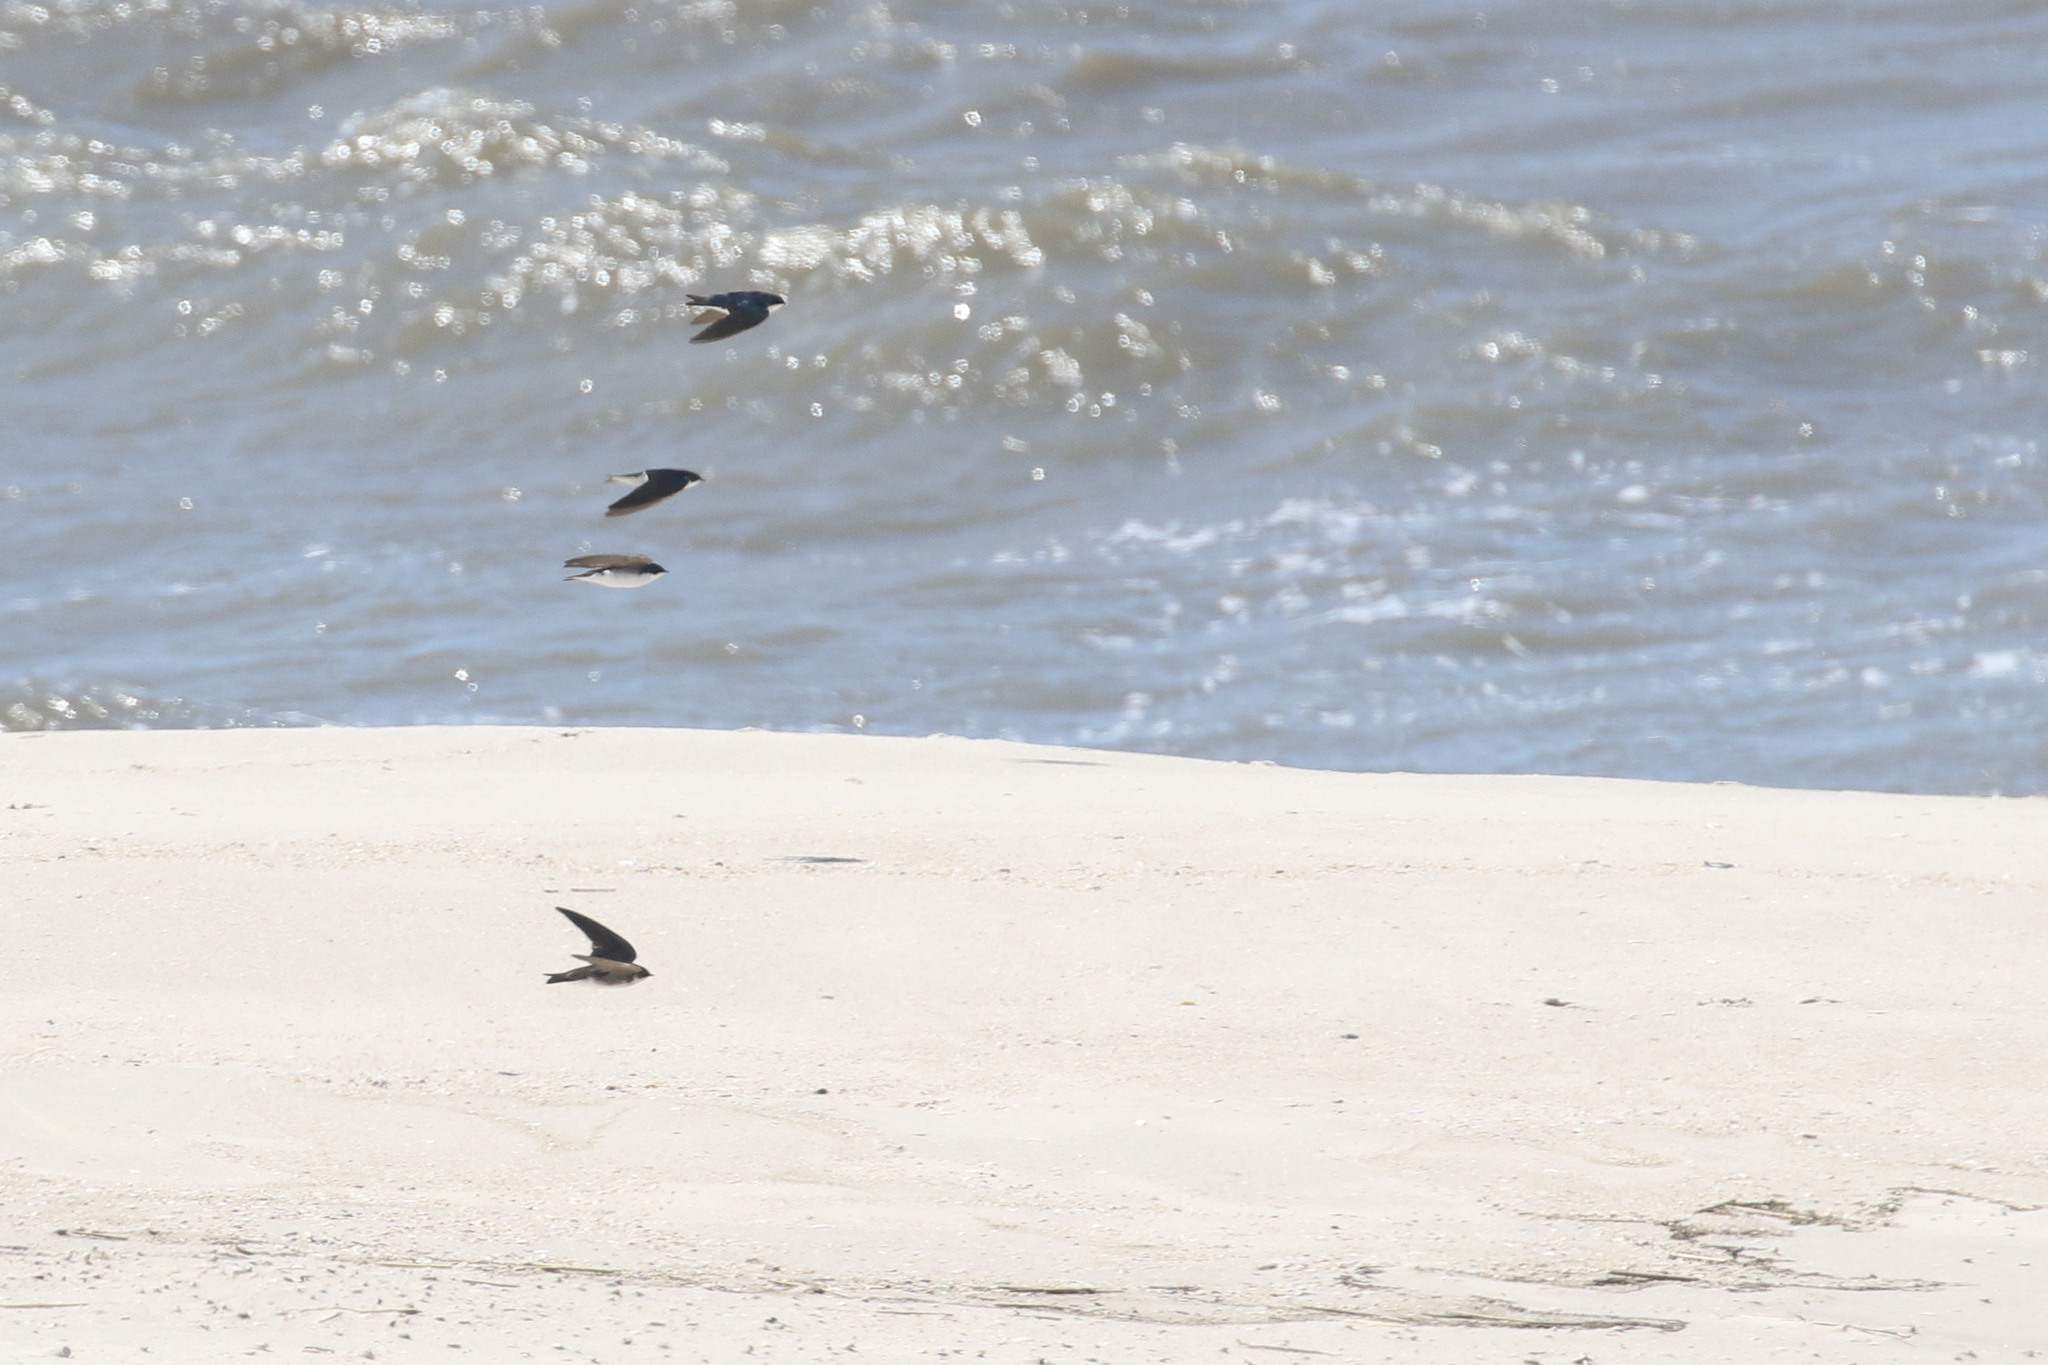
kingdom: Animalia
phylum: Chordata
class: Aves
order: Passeriformes
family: Hirundinidae
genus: Tachycineta
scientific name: Tachycineta bicolor
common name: Tree swallow
